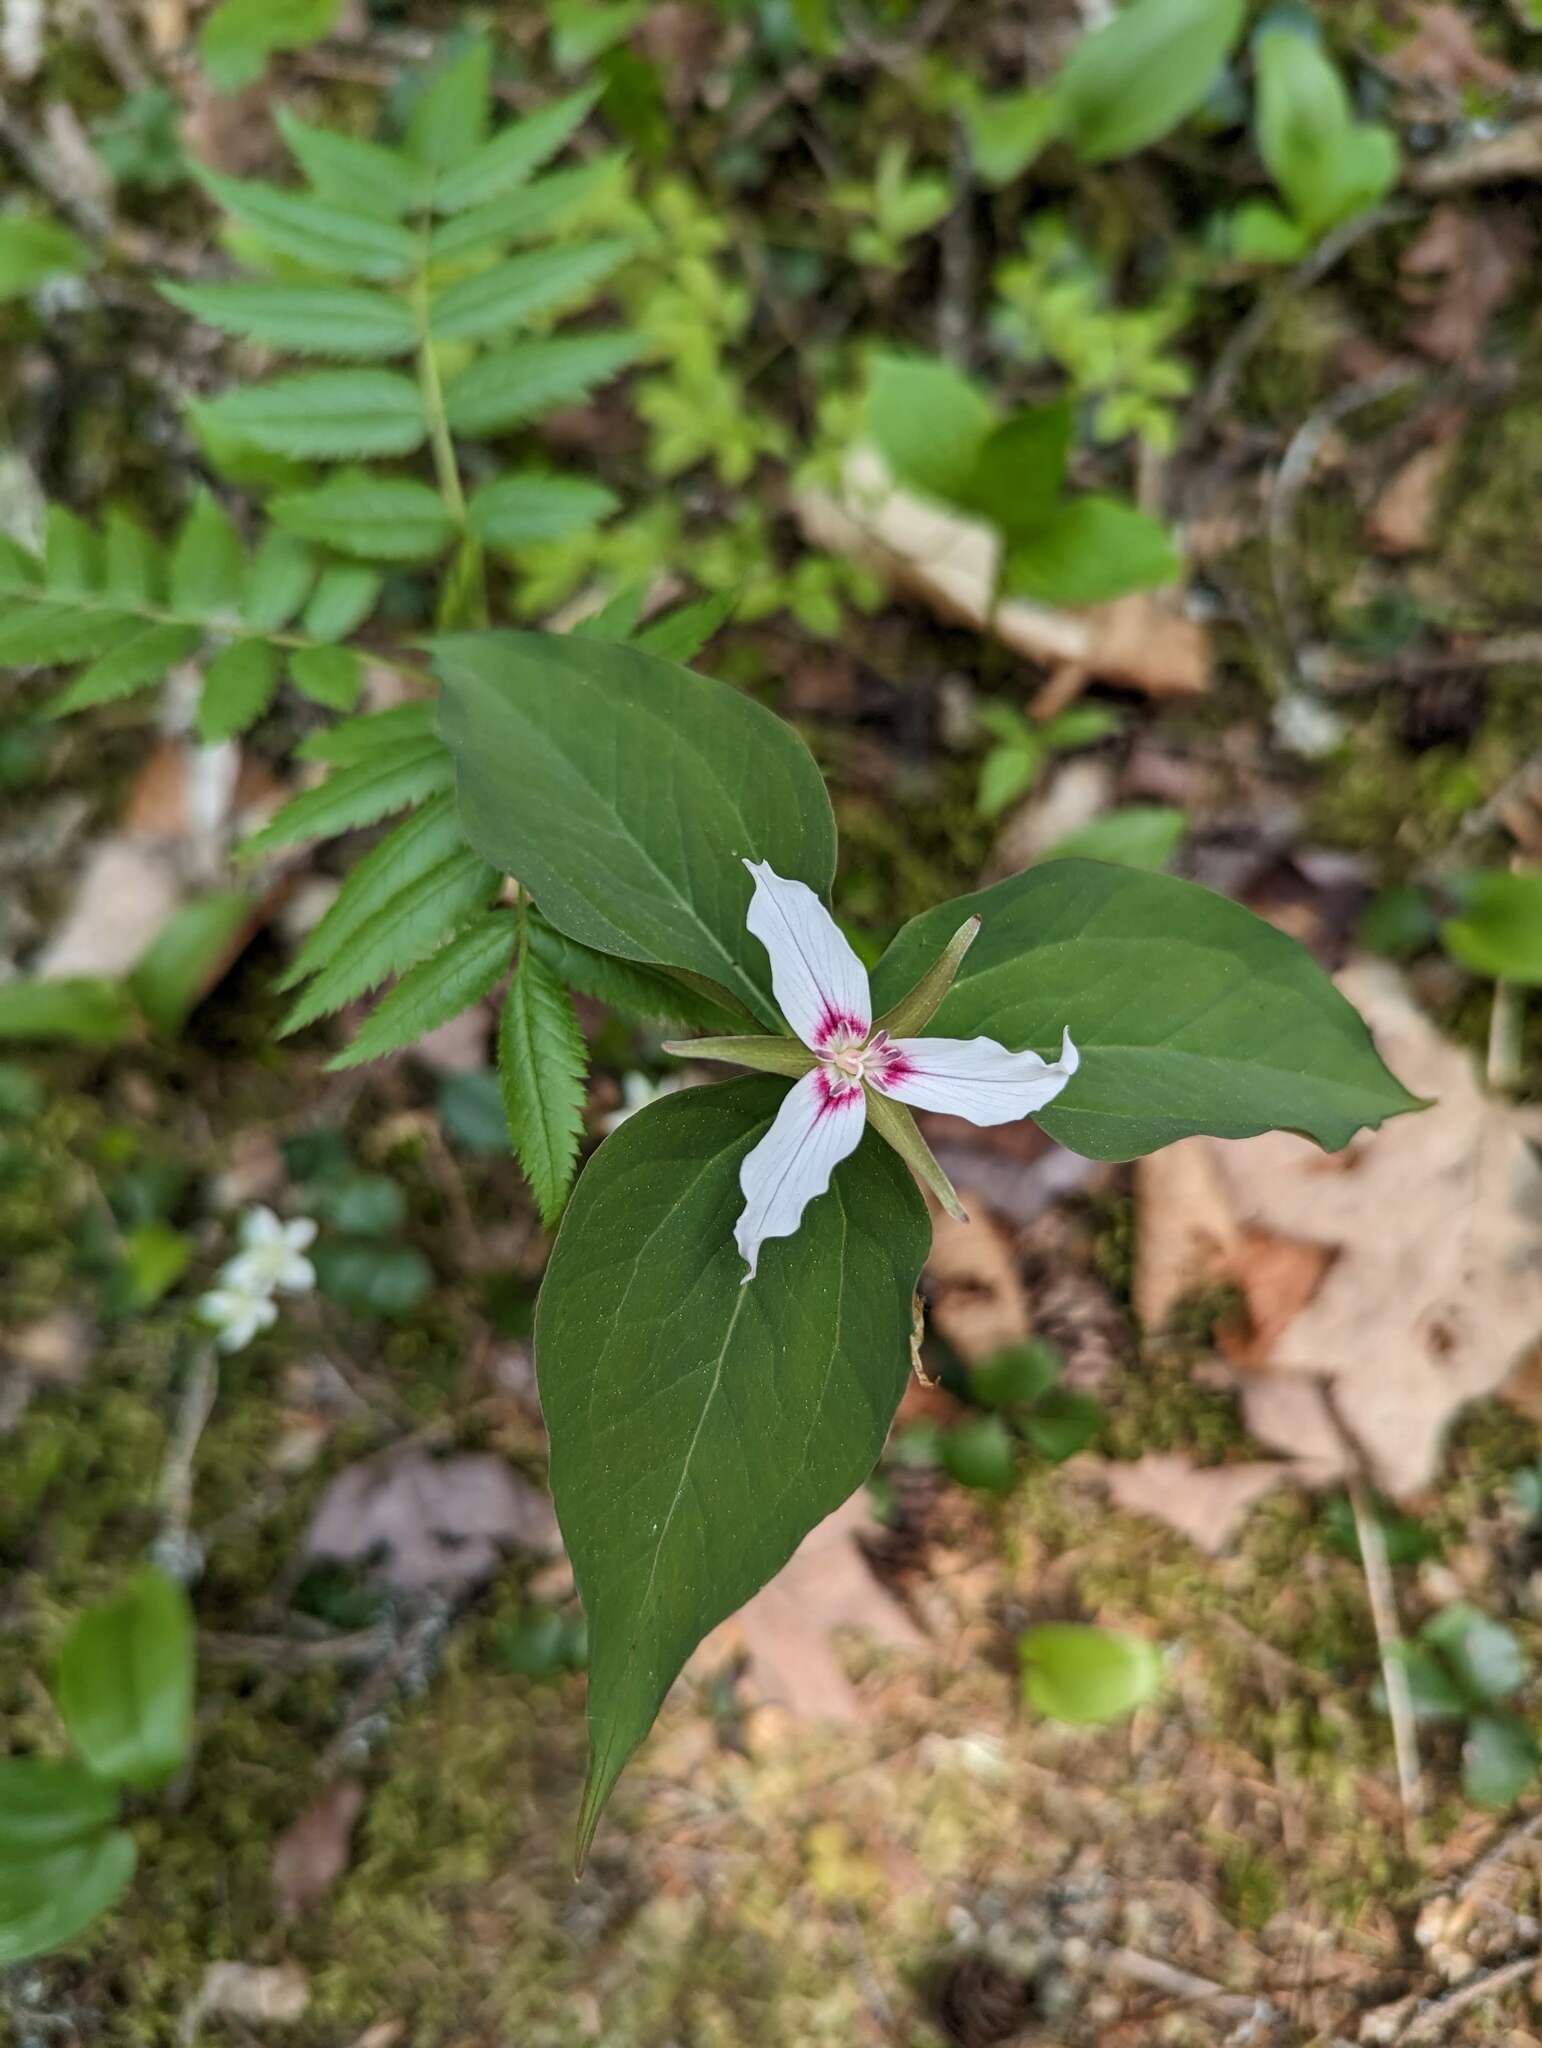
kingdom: Plantae
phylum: Tracheophyta
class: Liliopsida
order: Liliales
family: Melanthiaceae
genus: Trillium
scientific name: Trillium undulatum
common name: Paint trillium
